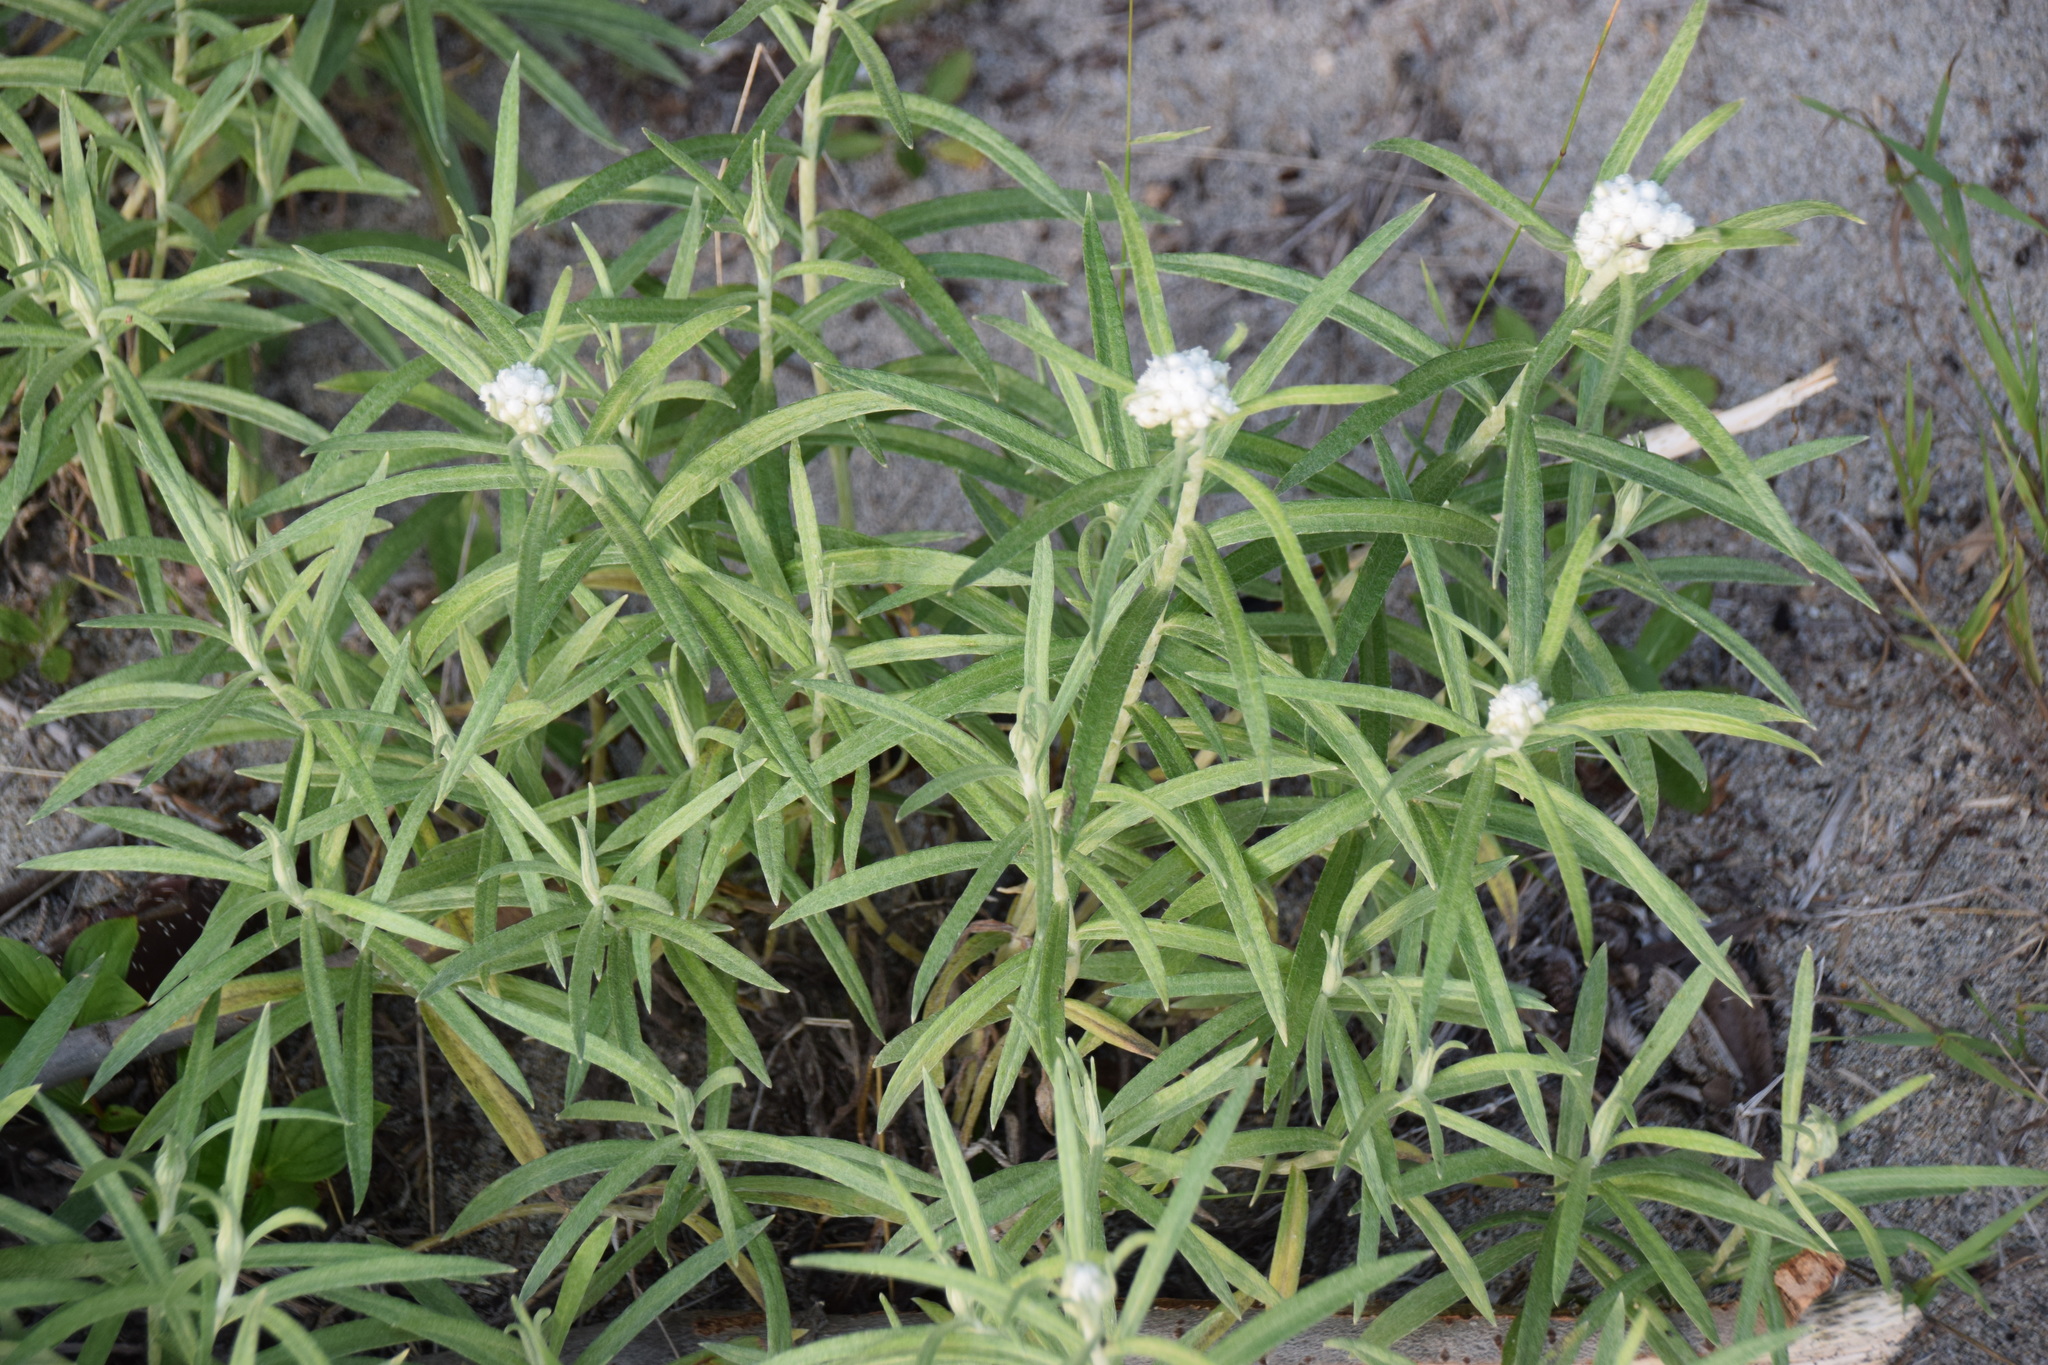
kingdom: Plantae
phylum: Tracheophyta
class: Magnoliopsida
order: Asterales
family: Asteraceae
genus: Anaphalis
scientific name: Anaphalis margaritacea
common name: Pearly everlasting
